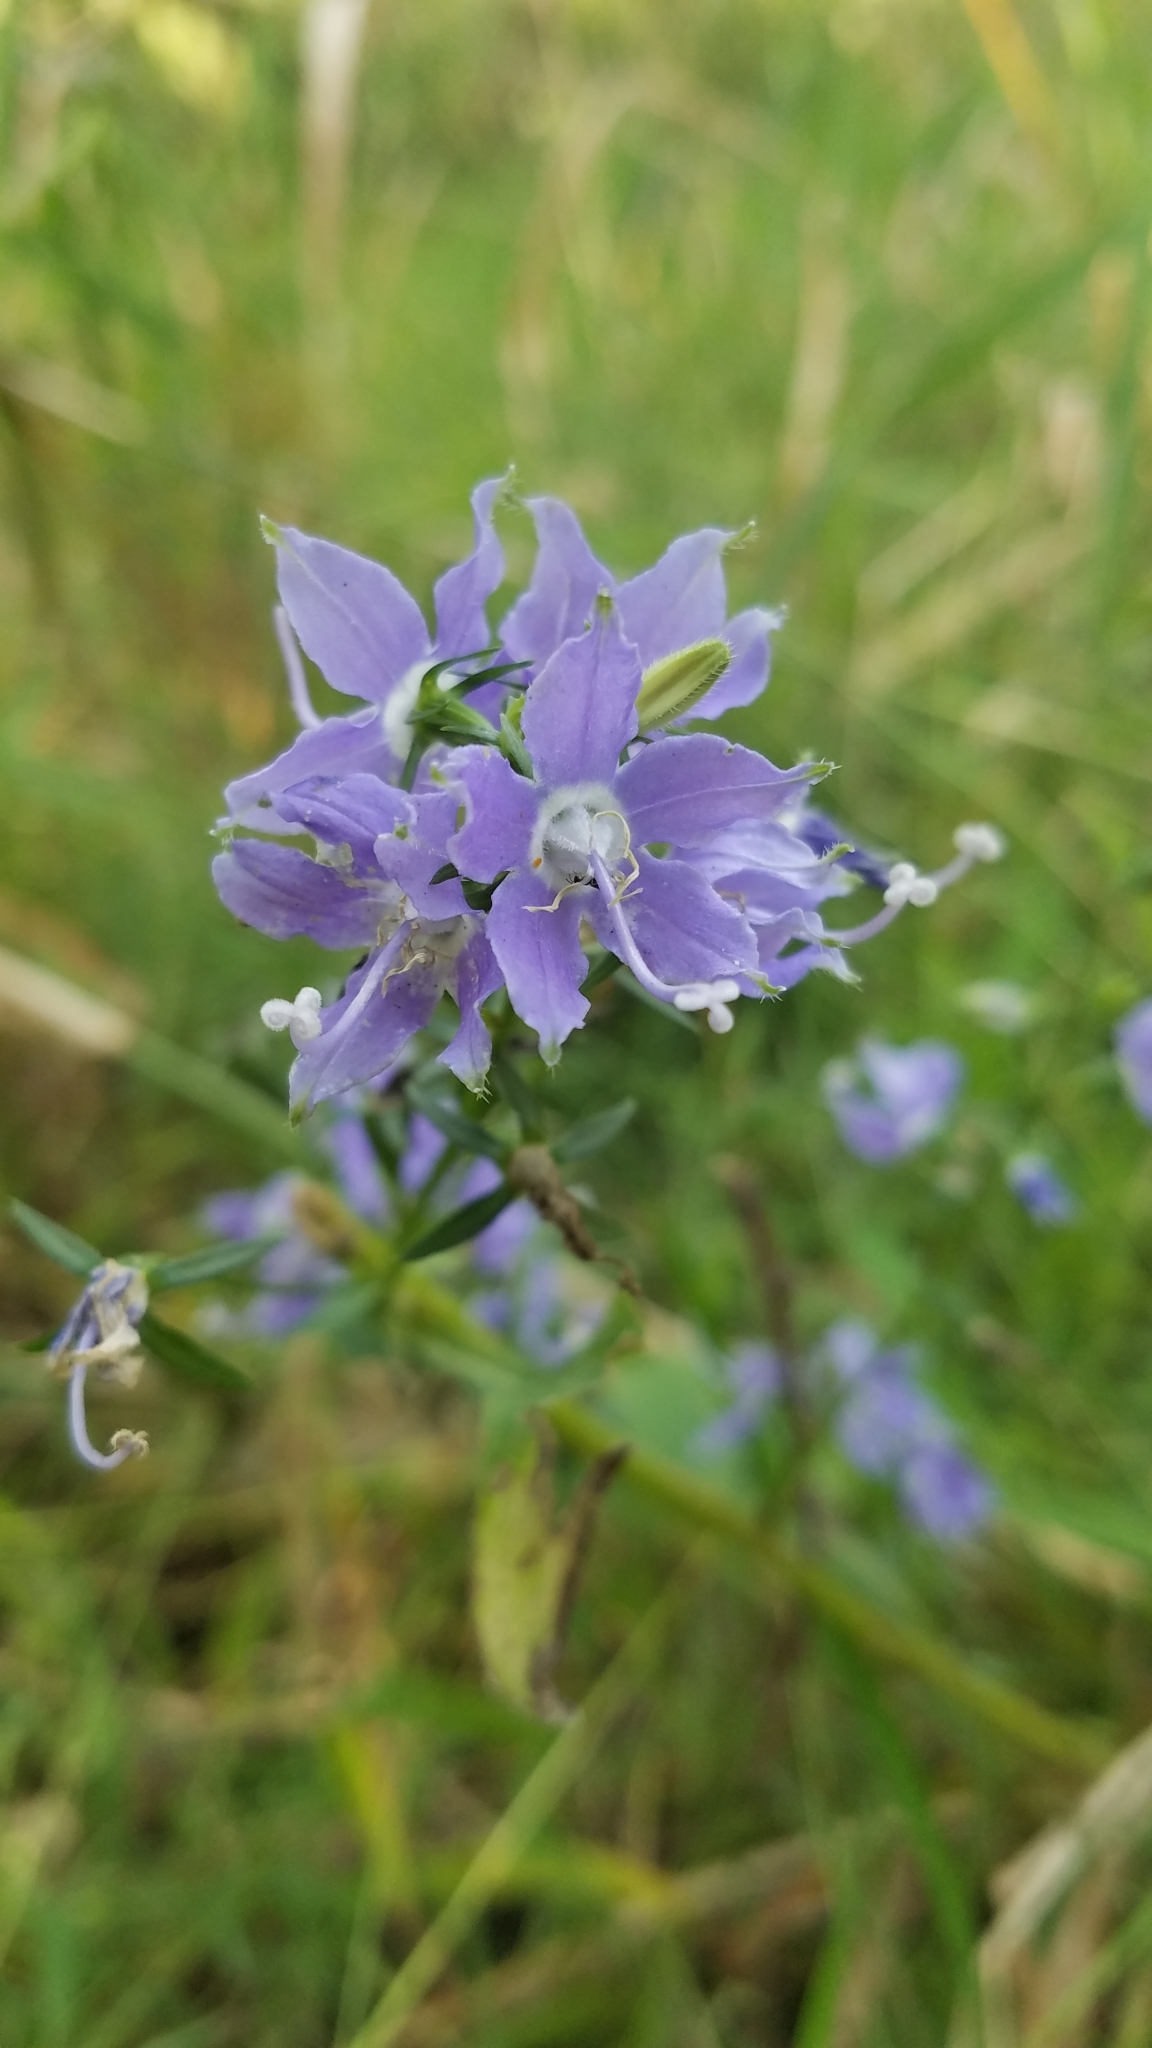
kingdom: Plantae
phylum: Tracheophyta
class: Magnoliopsida
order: Asterales
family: Campanulaceae
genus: Campanulastrum
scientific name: Campanulastrum americanum
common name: American bellflower
